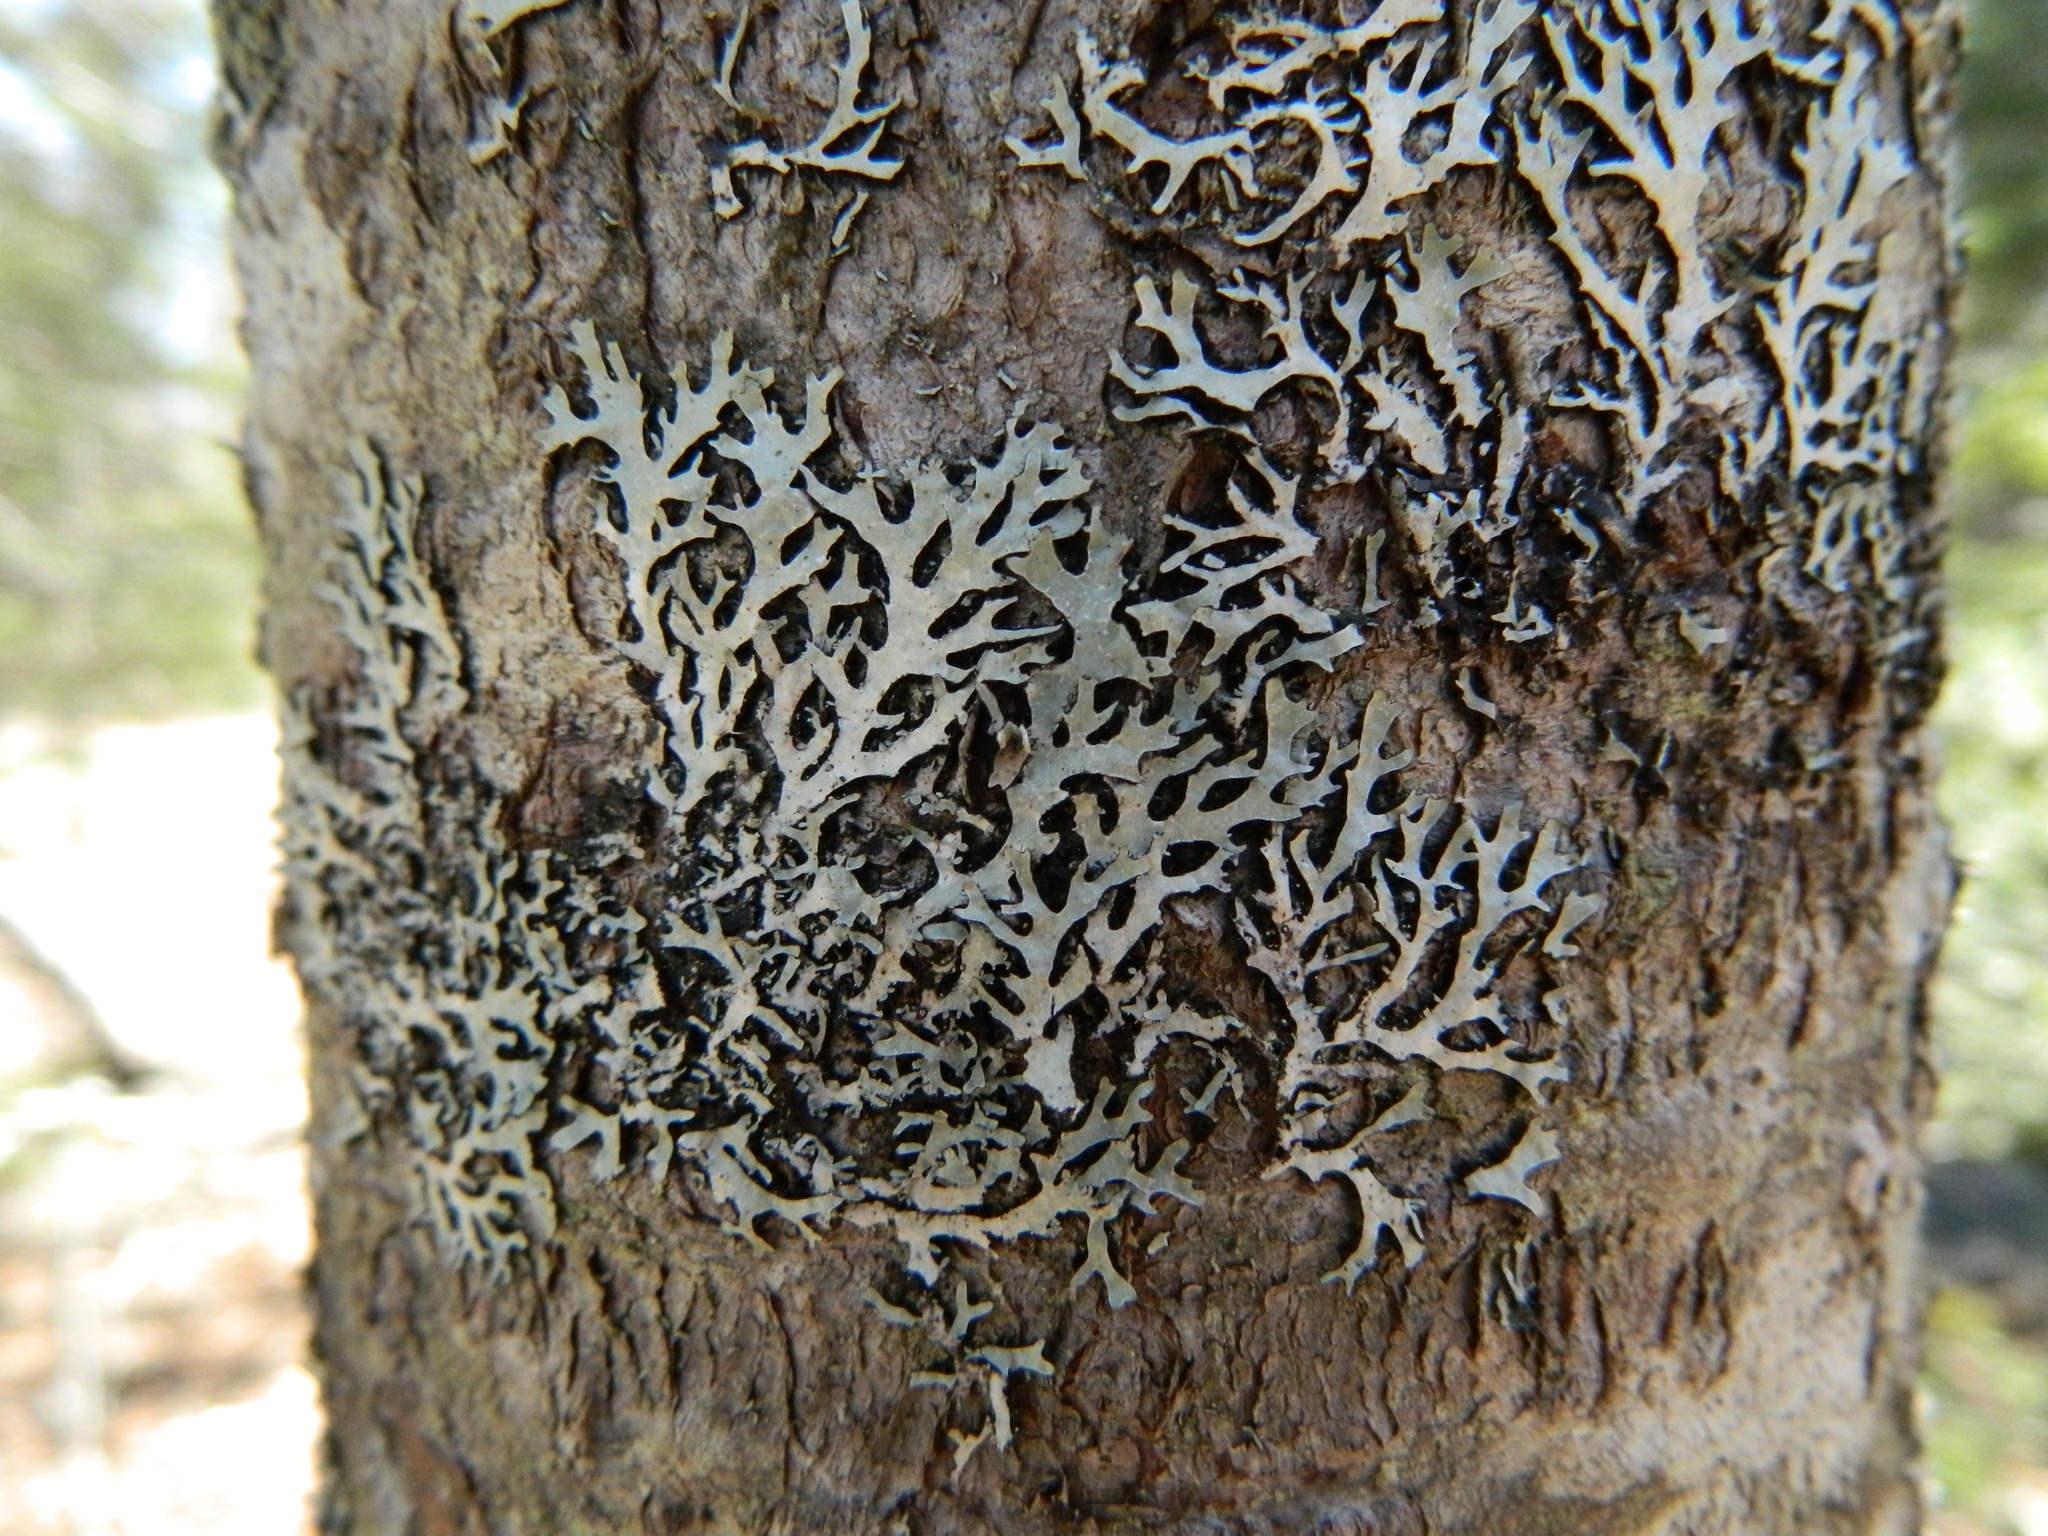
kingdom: Fungi
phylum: Ascomycota
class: Lecanoromycetes
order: Lecanorales
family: Parmeliaceae
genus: Parmelia
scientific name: Parmelia squarrosa
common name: Bottle brush shield lichen
